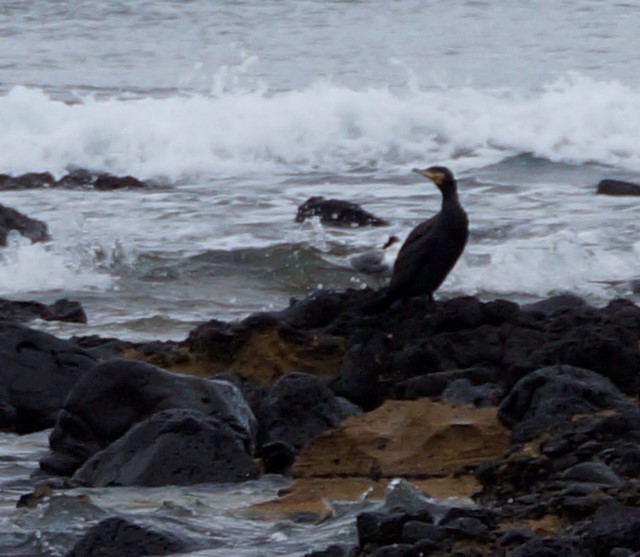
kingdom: Animalia
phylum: Chordata
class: Aves
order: Suliformes
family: Phalacrocoracidae
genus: Phalacrocorax
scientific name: Phalacrocorax carbo
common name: Great cormorant
